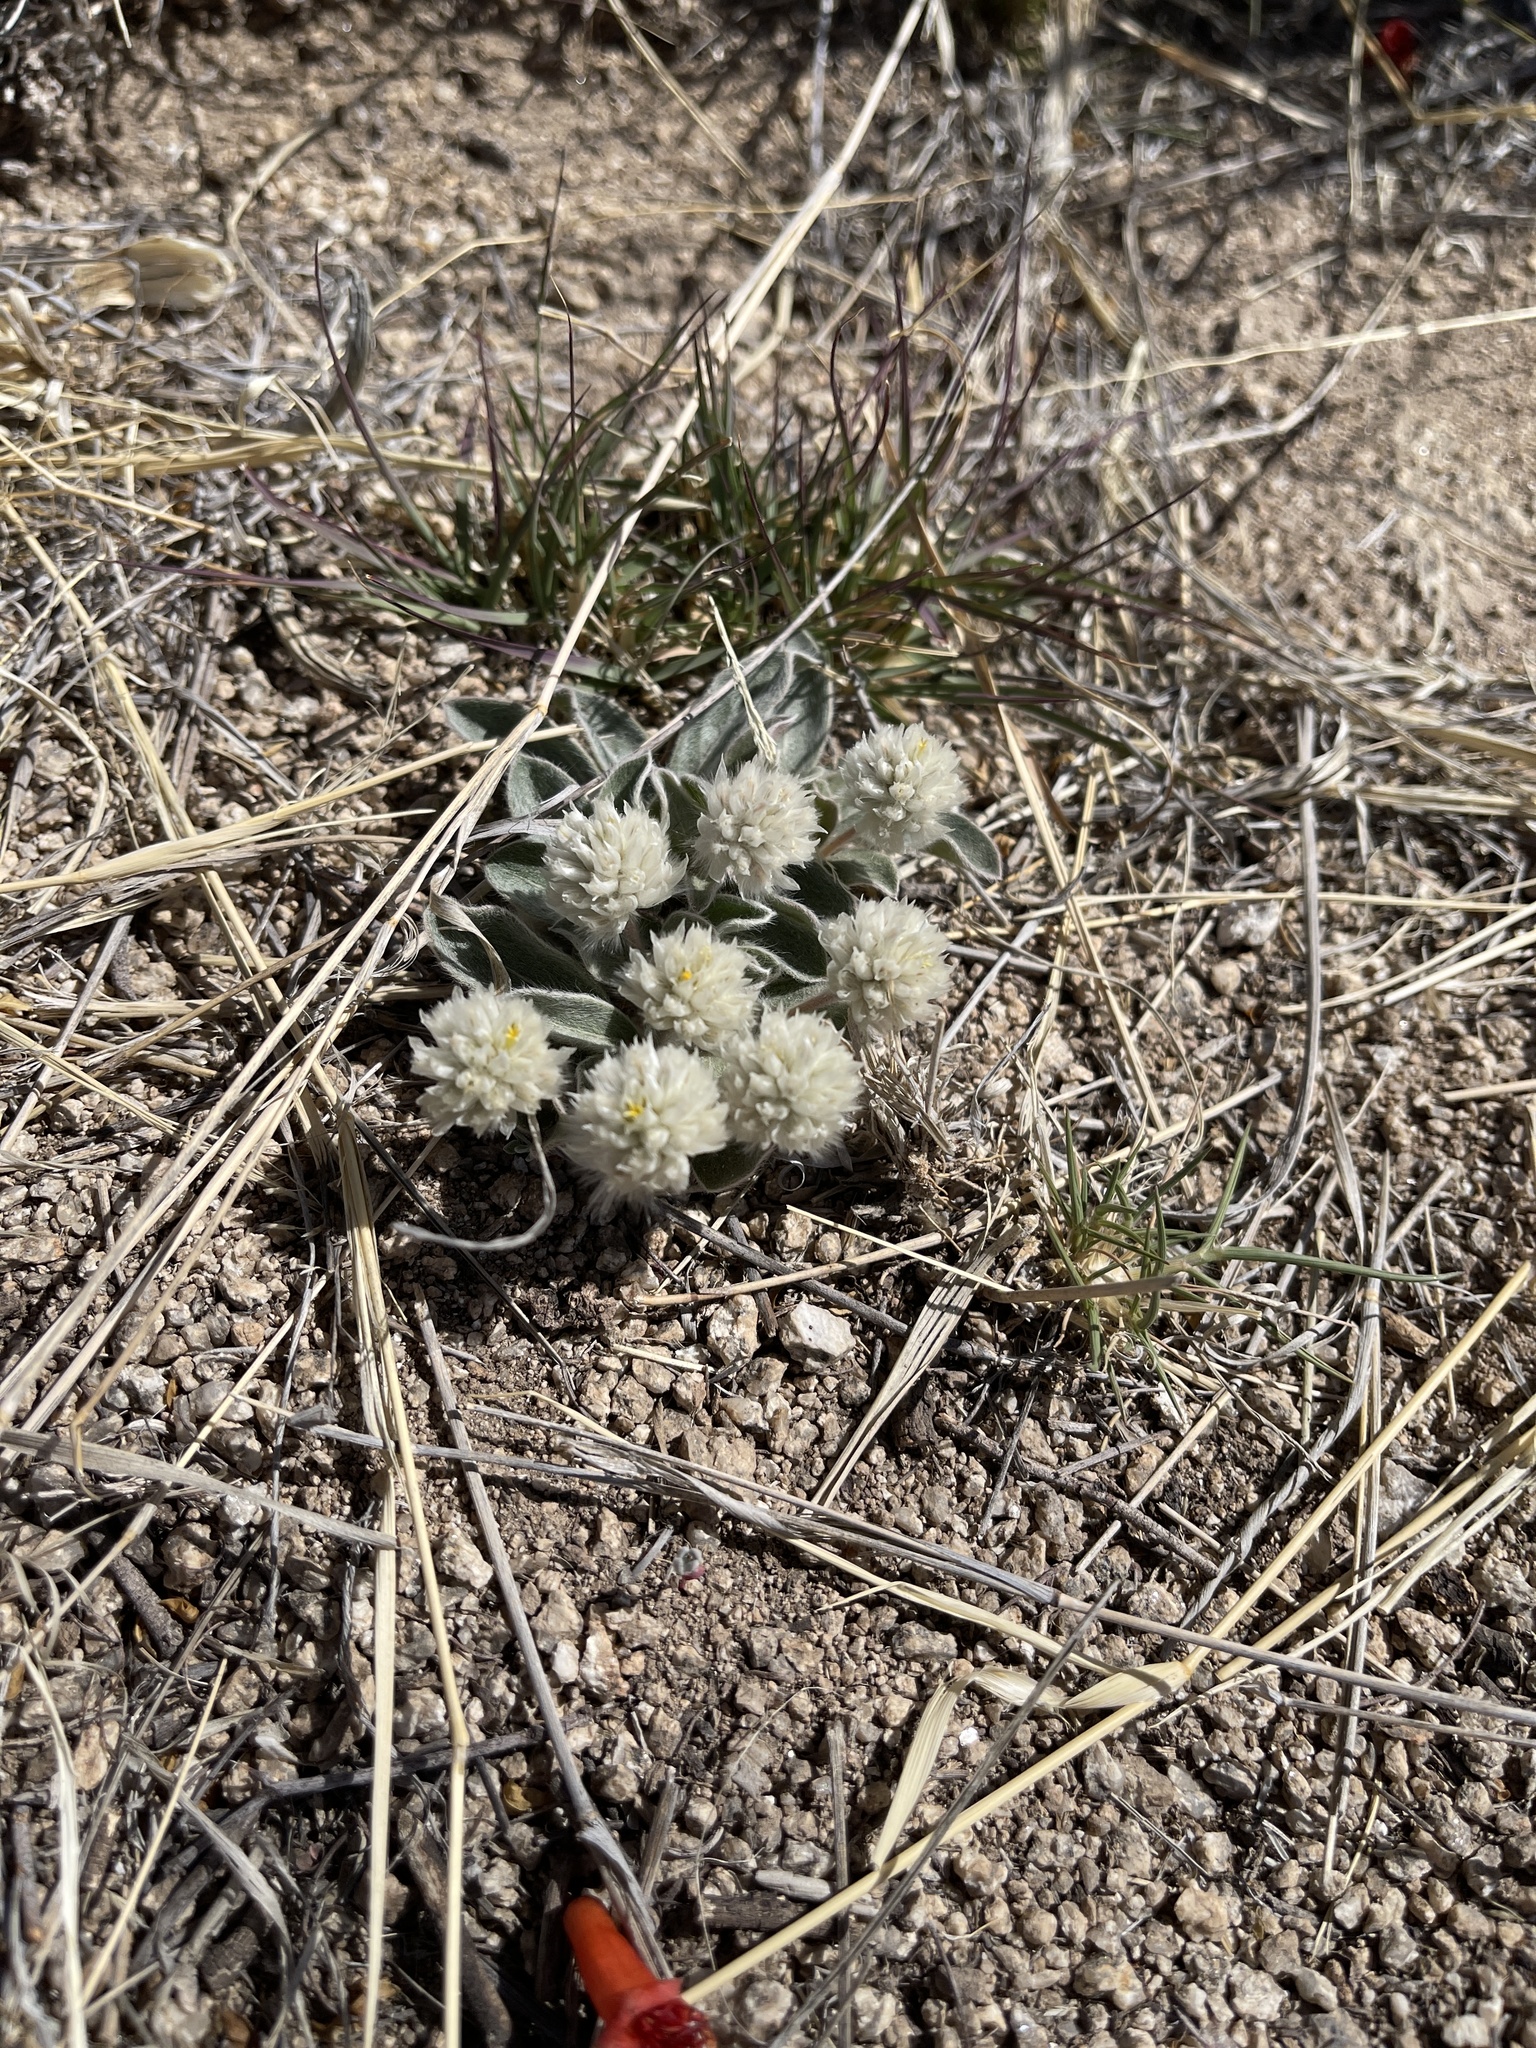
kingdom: Plantae
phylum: Tracheophyta
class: Magnoliopsida
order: Caryophyllales
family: Amaranthaceae
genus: Gomphrena
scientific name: Gomphrena caespitosa
